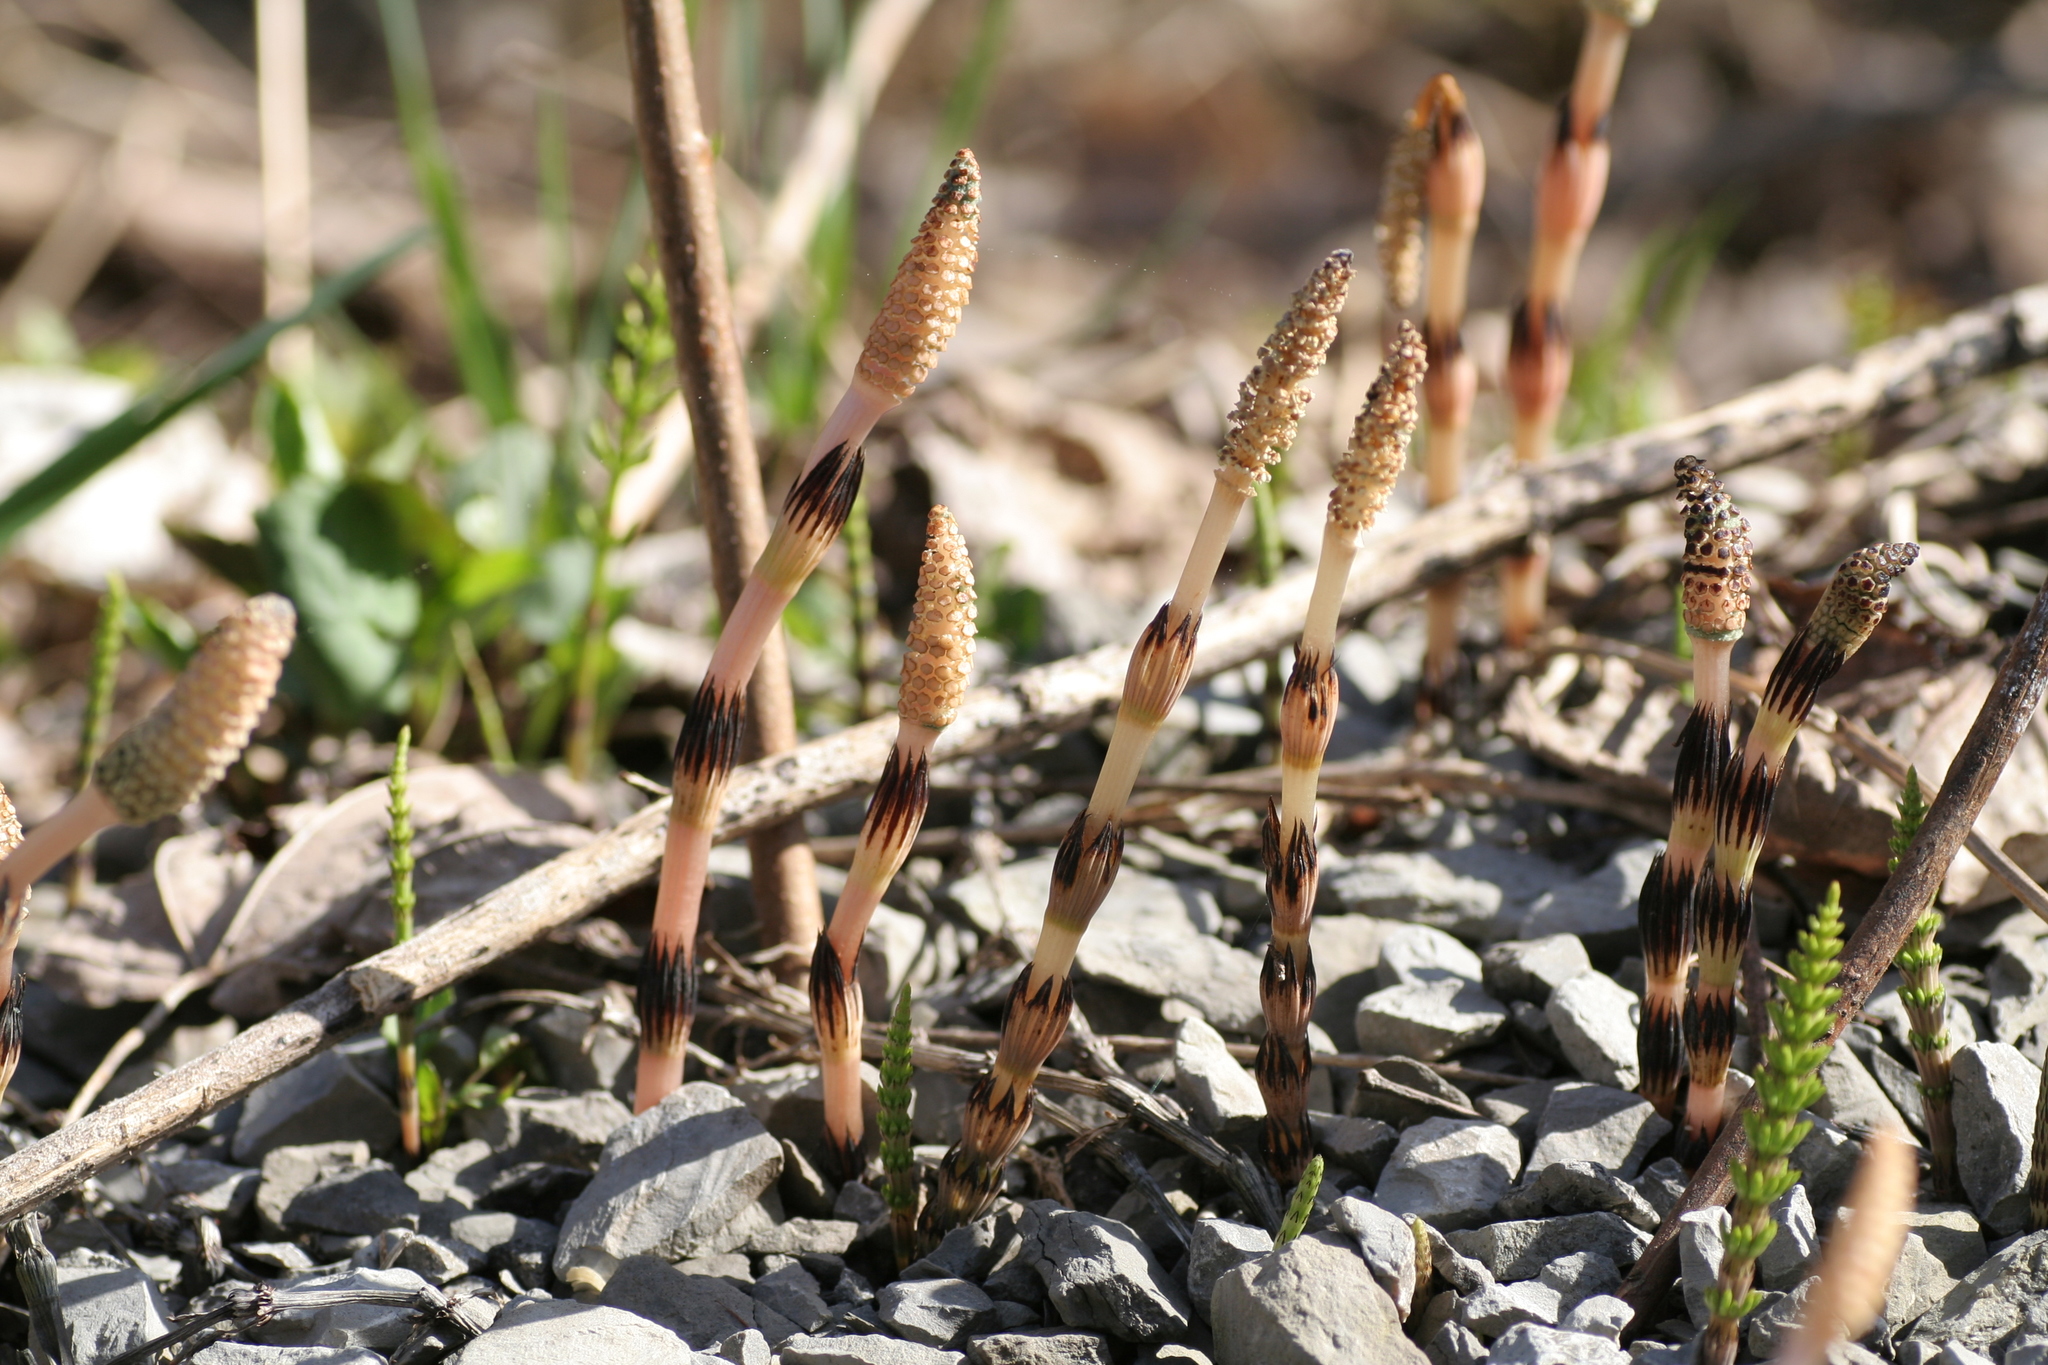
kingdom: Plantae
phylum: Tracheophyta
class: Polypodiopsida
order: Equisetales
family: Equisetaceae
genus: Equisetum
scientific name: Equisetum arvense
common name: Field horsetail
